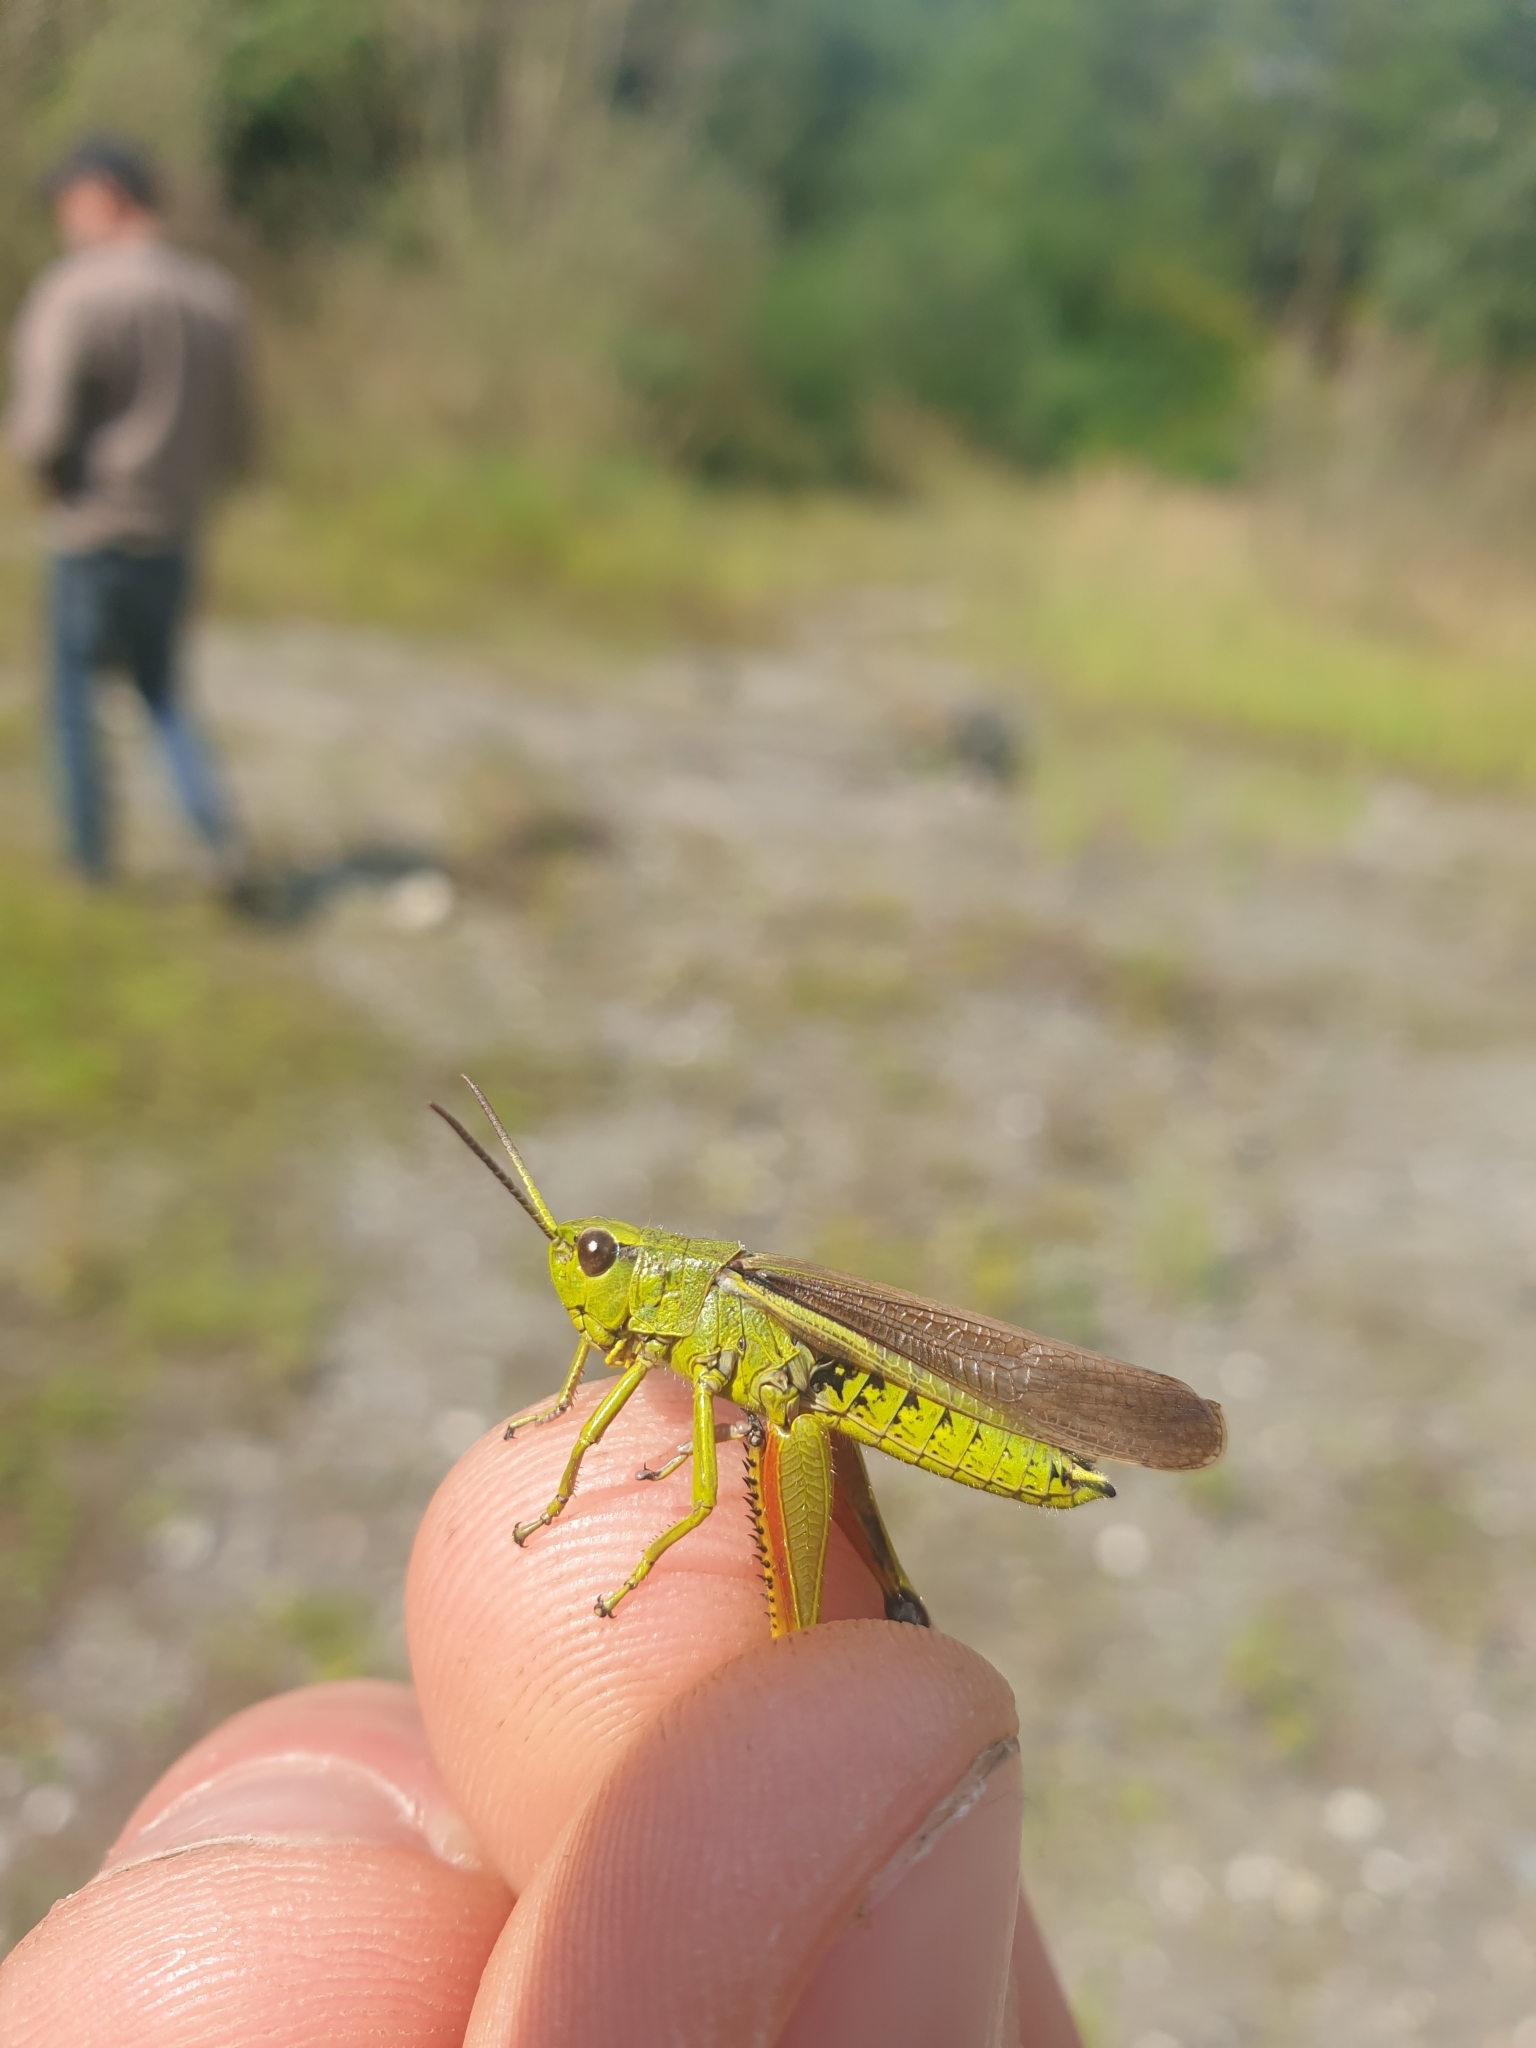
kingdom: Animalia
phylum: Arthropoda
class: Insecta
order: Orthoptera
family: Acrididae
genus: Stethophyma
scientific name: Stethophyma grossum
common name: Large marsh grasshopper
